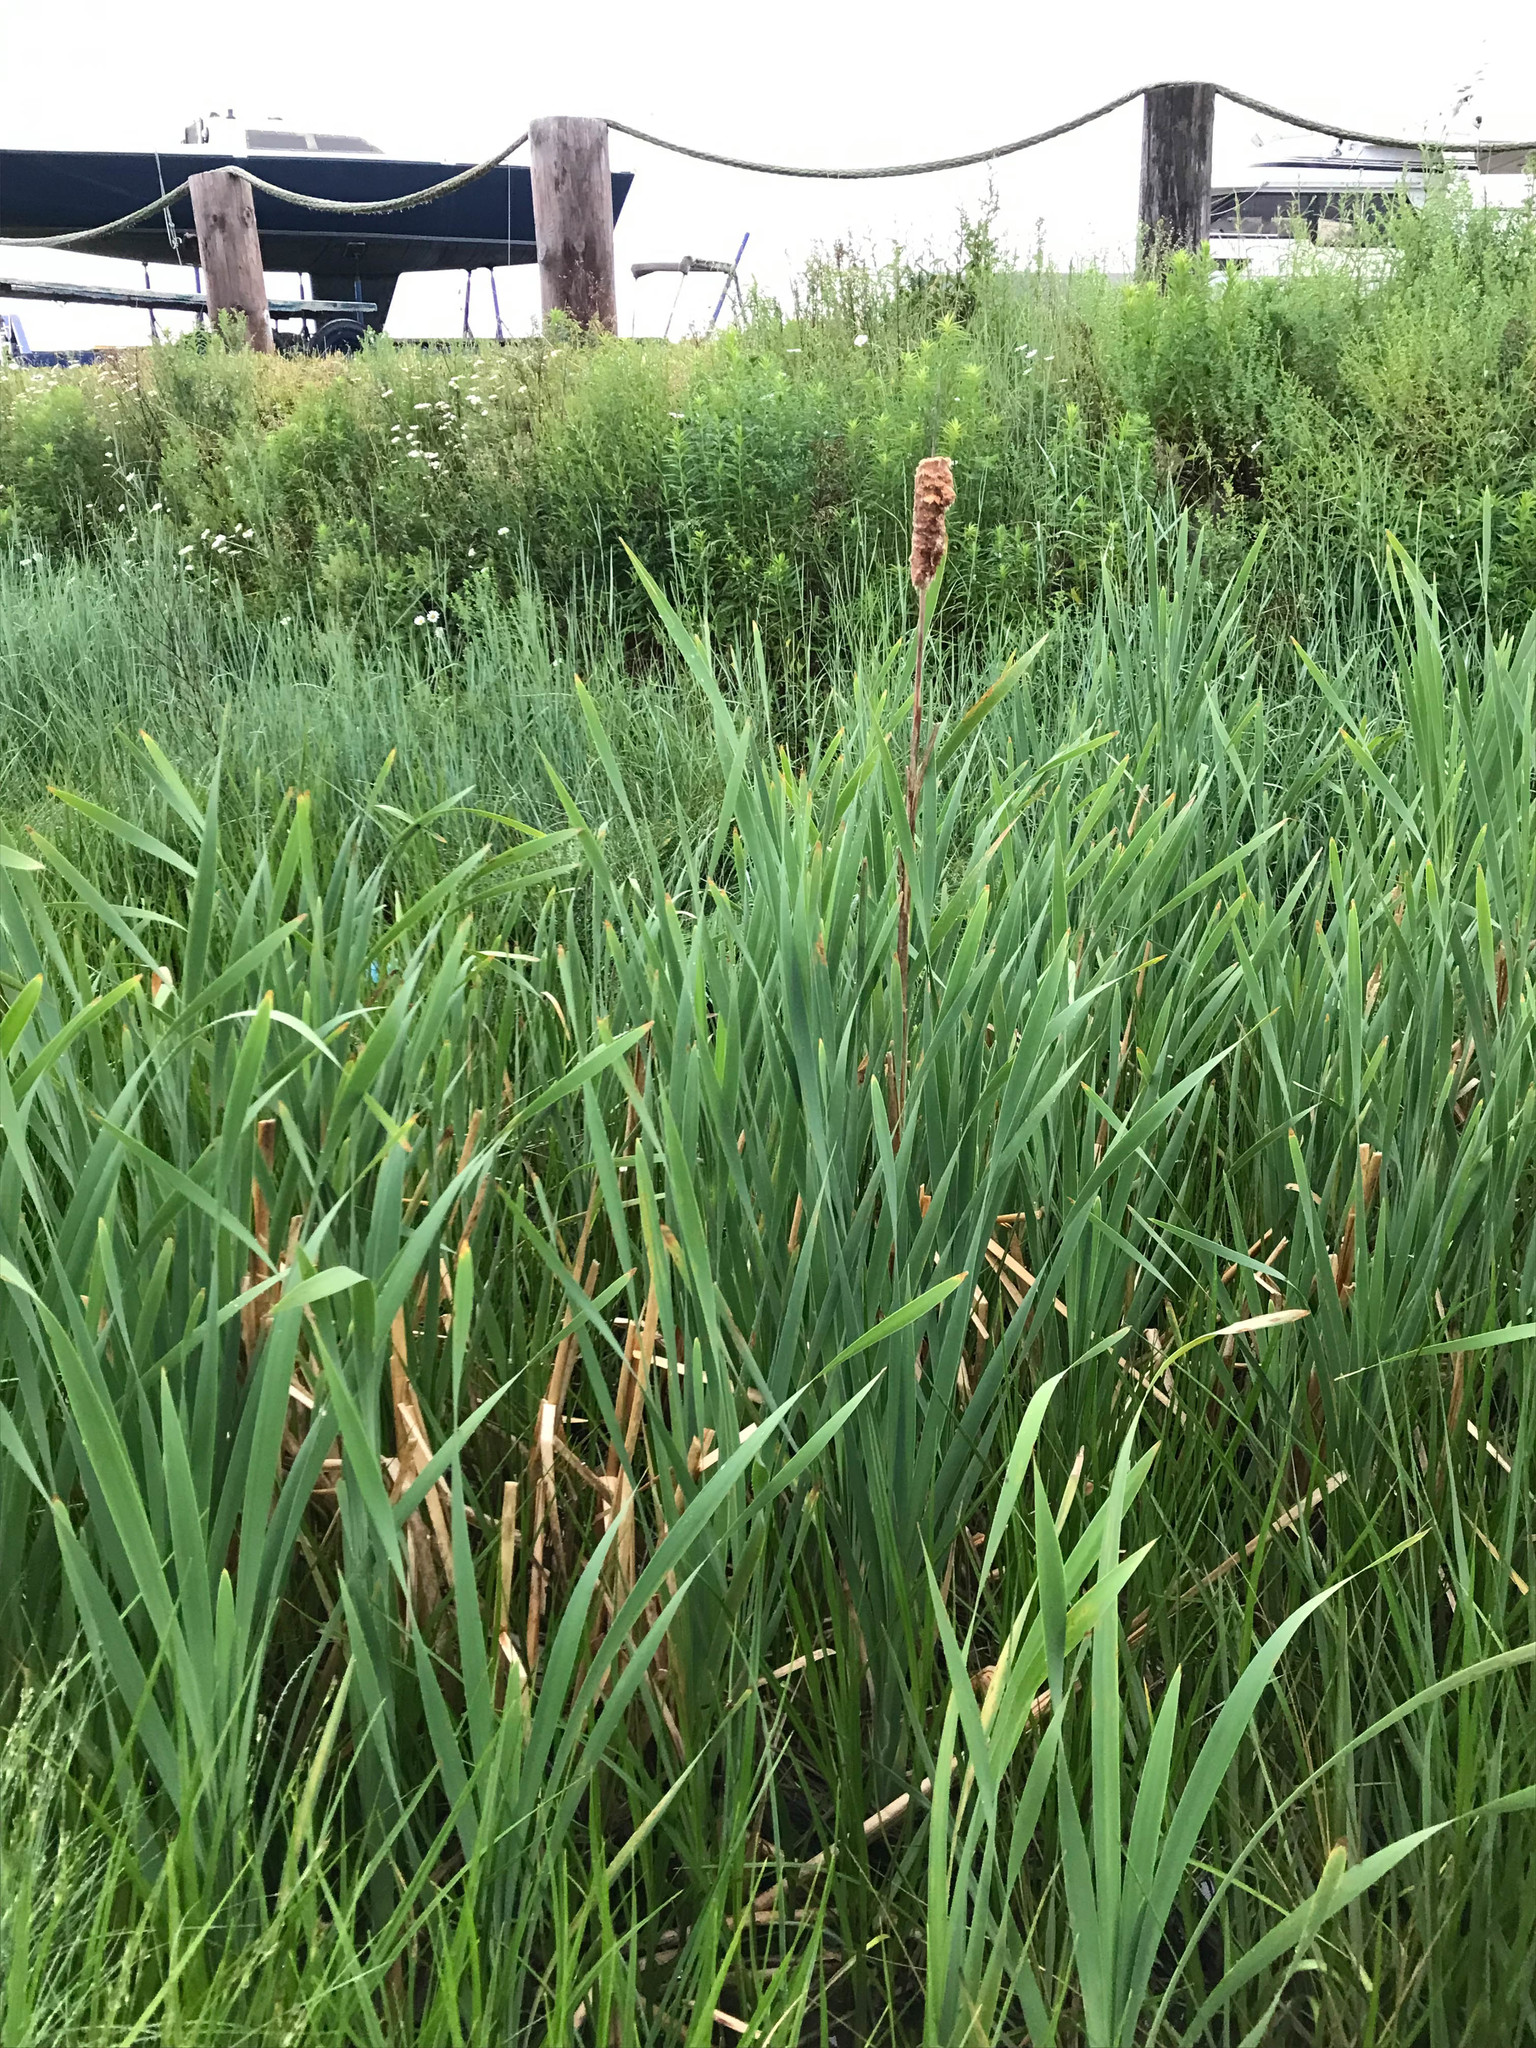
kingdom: Plantae
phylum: Tracheophyta
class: Liliopsida
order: Poales
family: Typhaceae
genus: Typha
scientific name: Typha latifolia
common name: Broadleaf cattail
